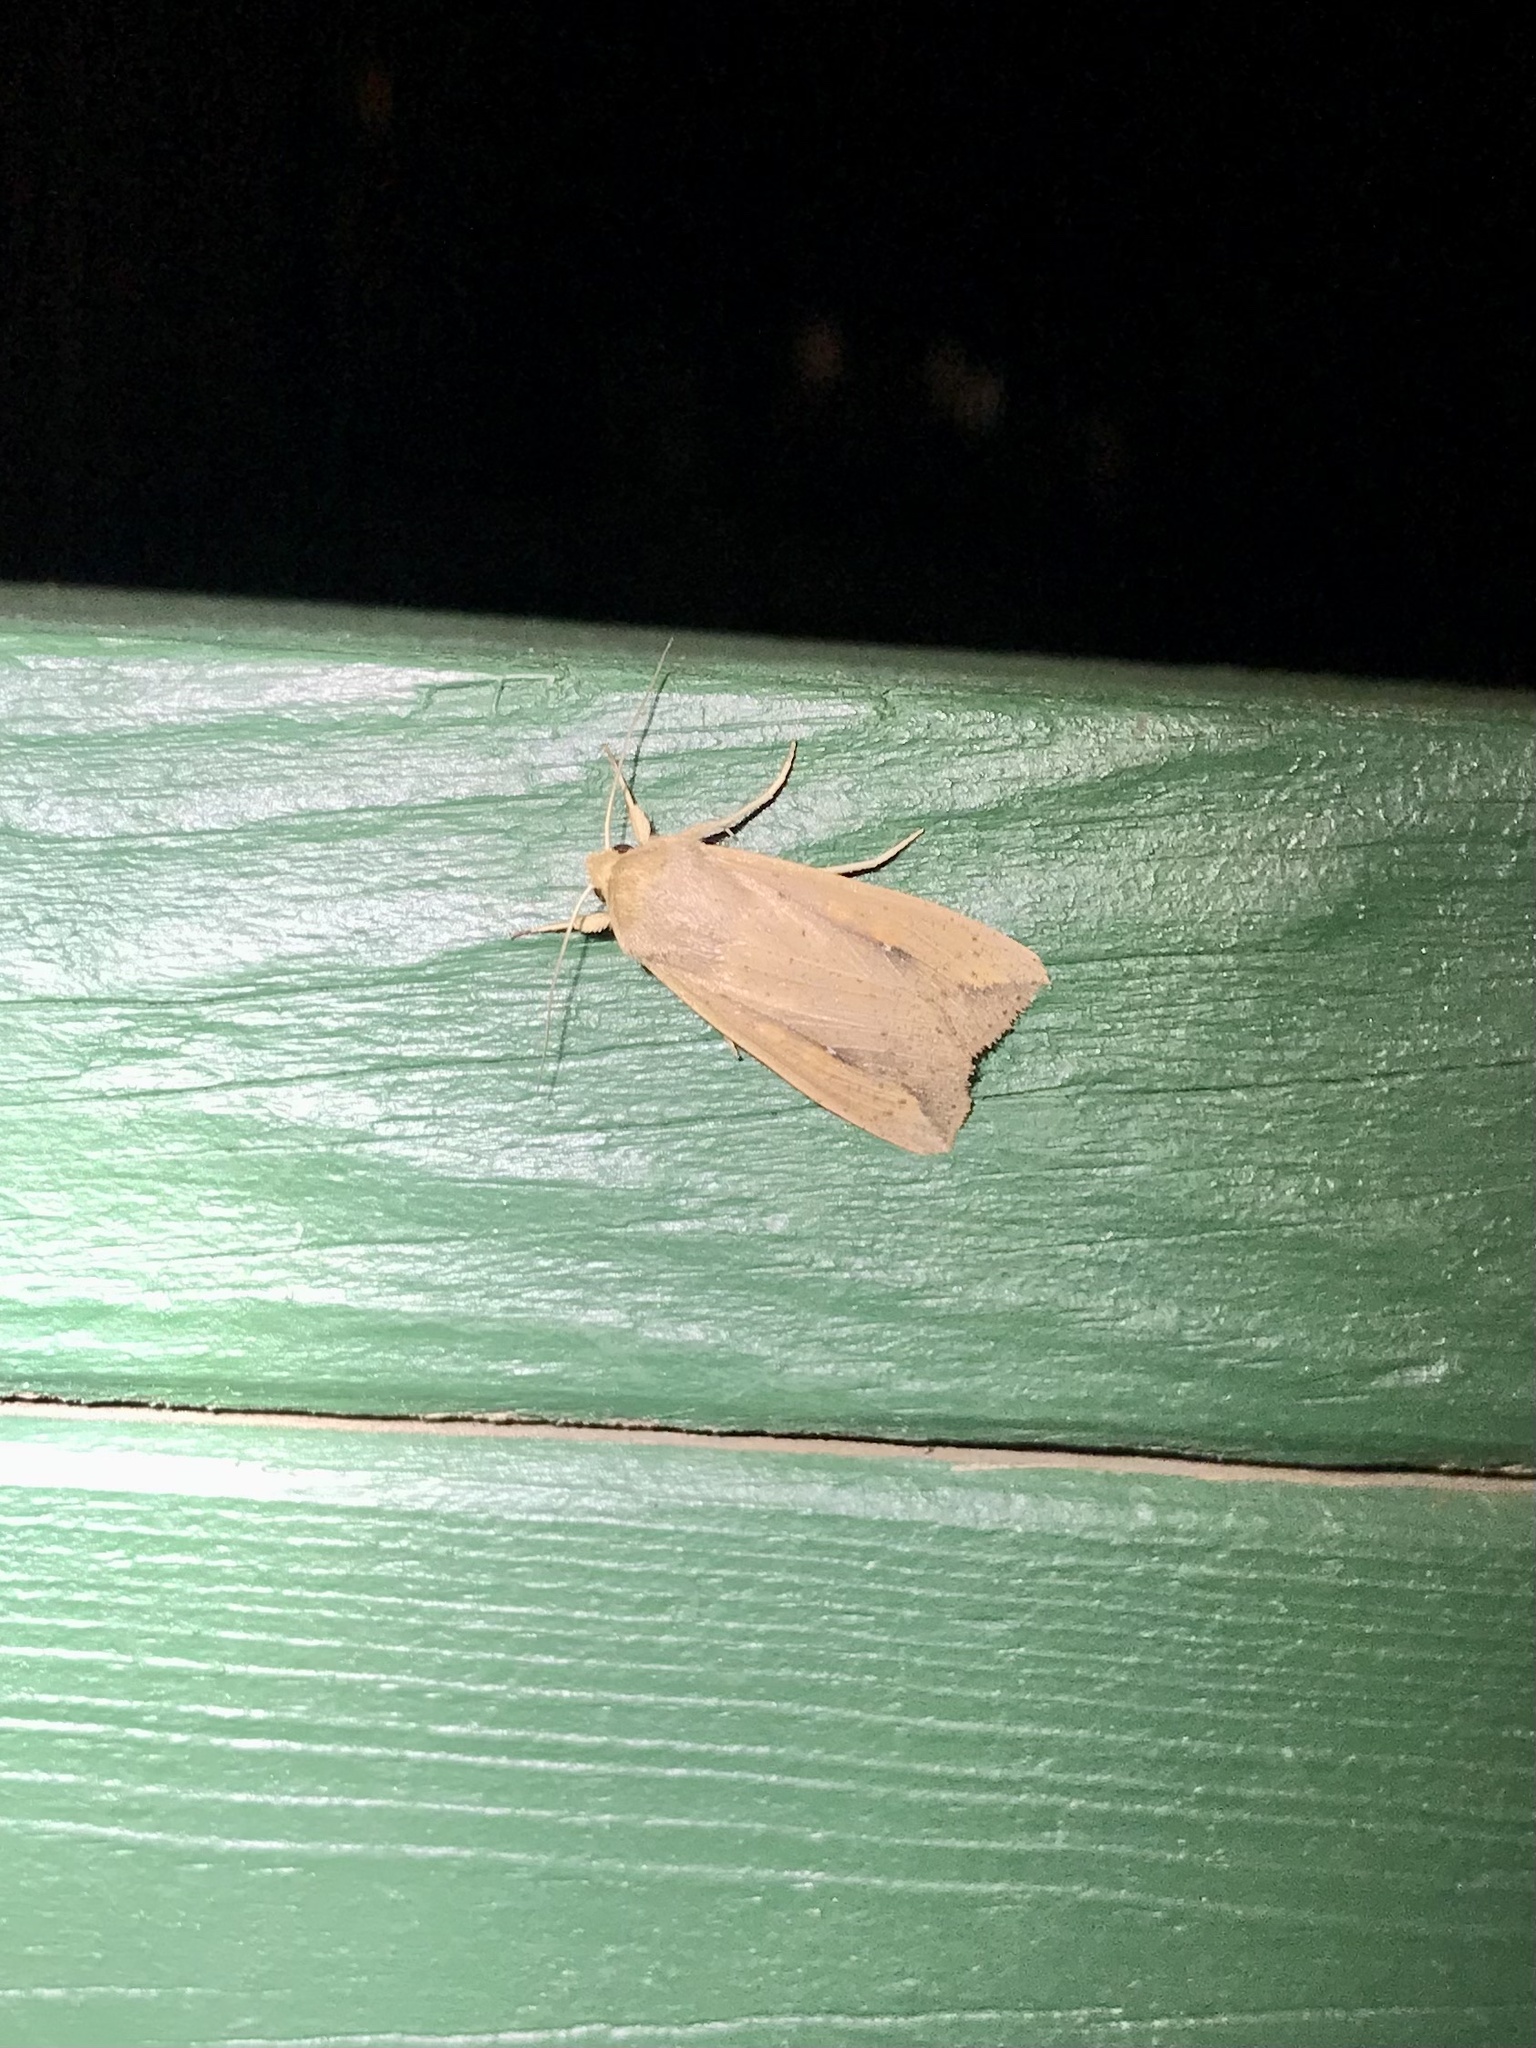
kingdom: Animalia
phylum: Arthropoda
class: Insecta
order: Lepidoptera
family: Noctuidae
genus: Mythimna
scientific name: Mythimna unipuncta
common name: White-speck
